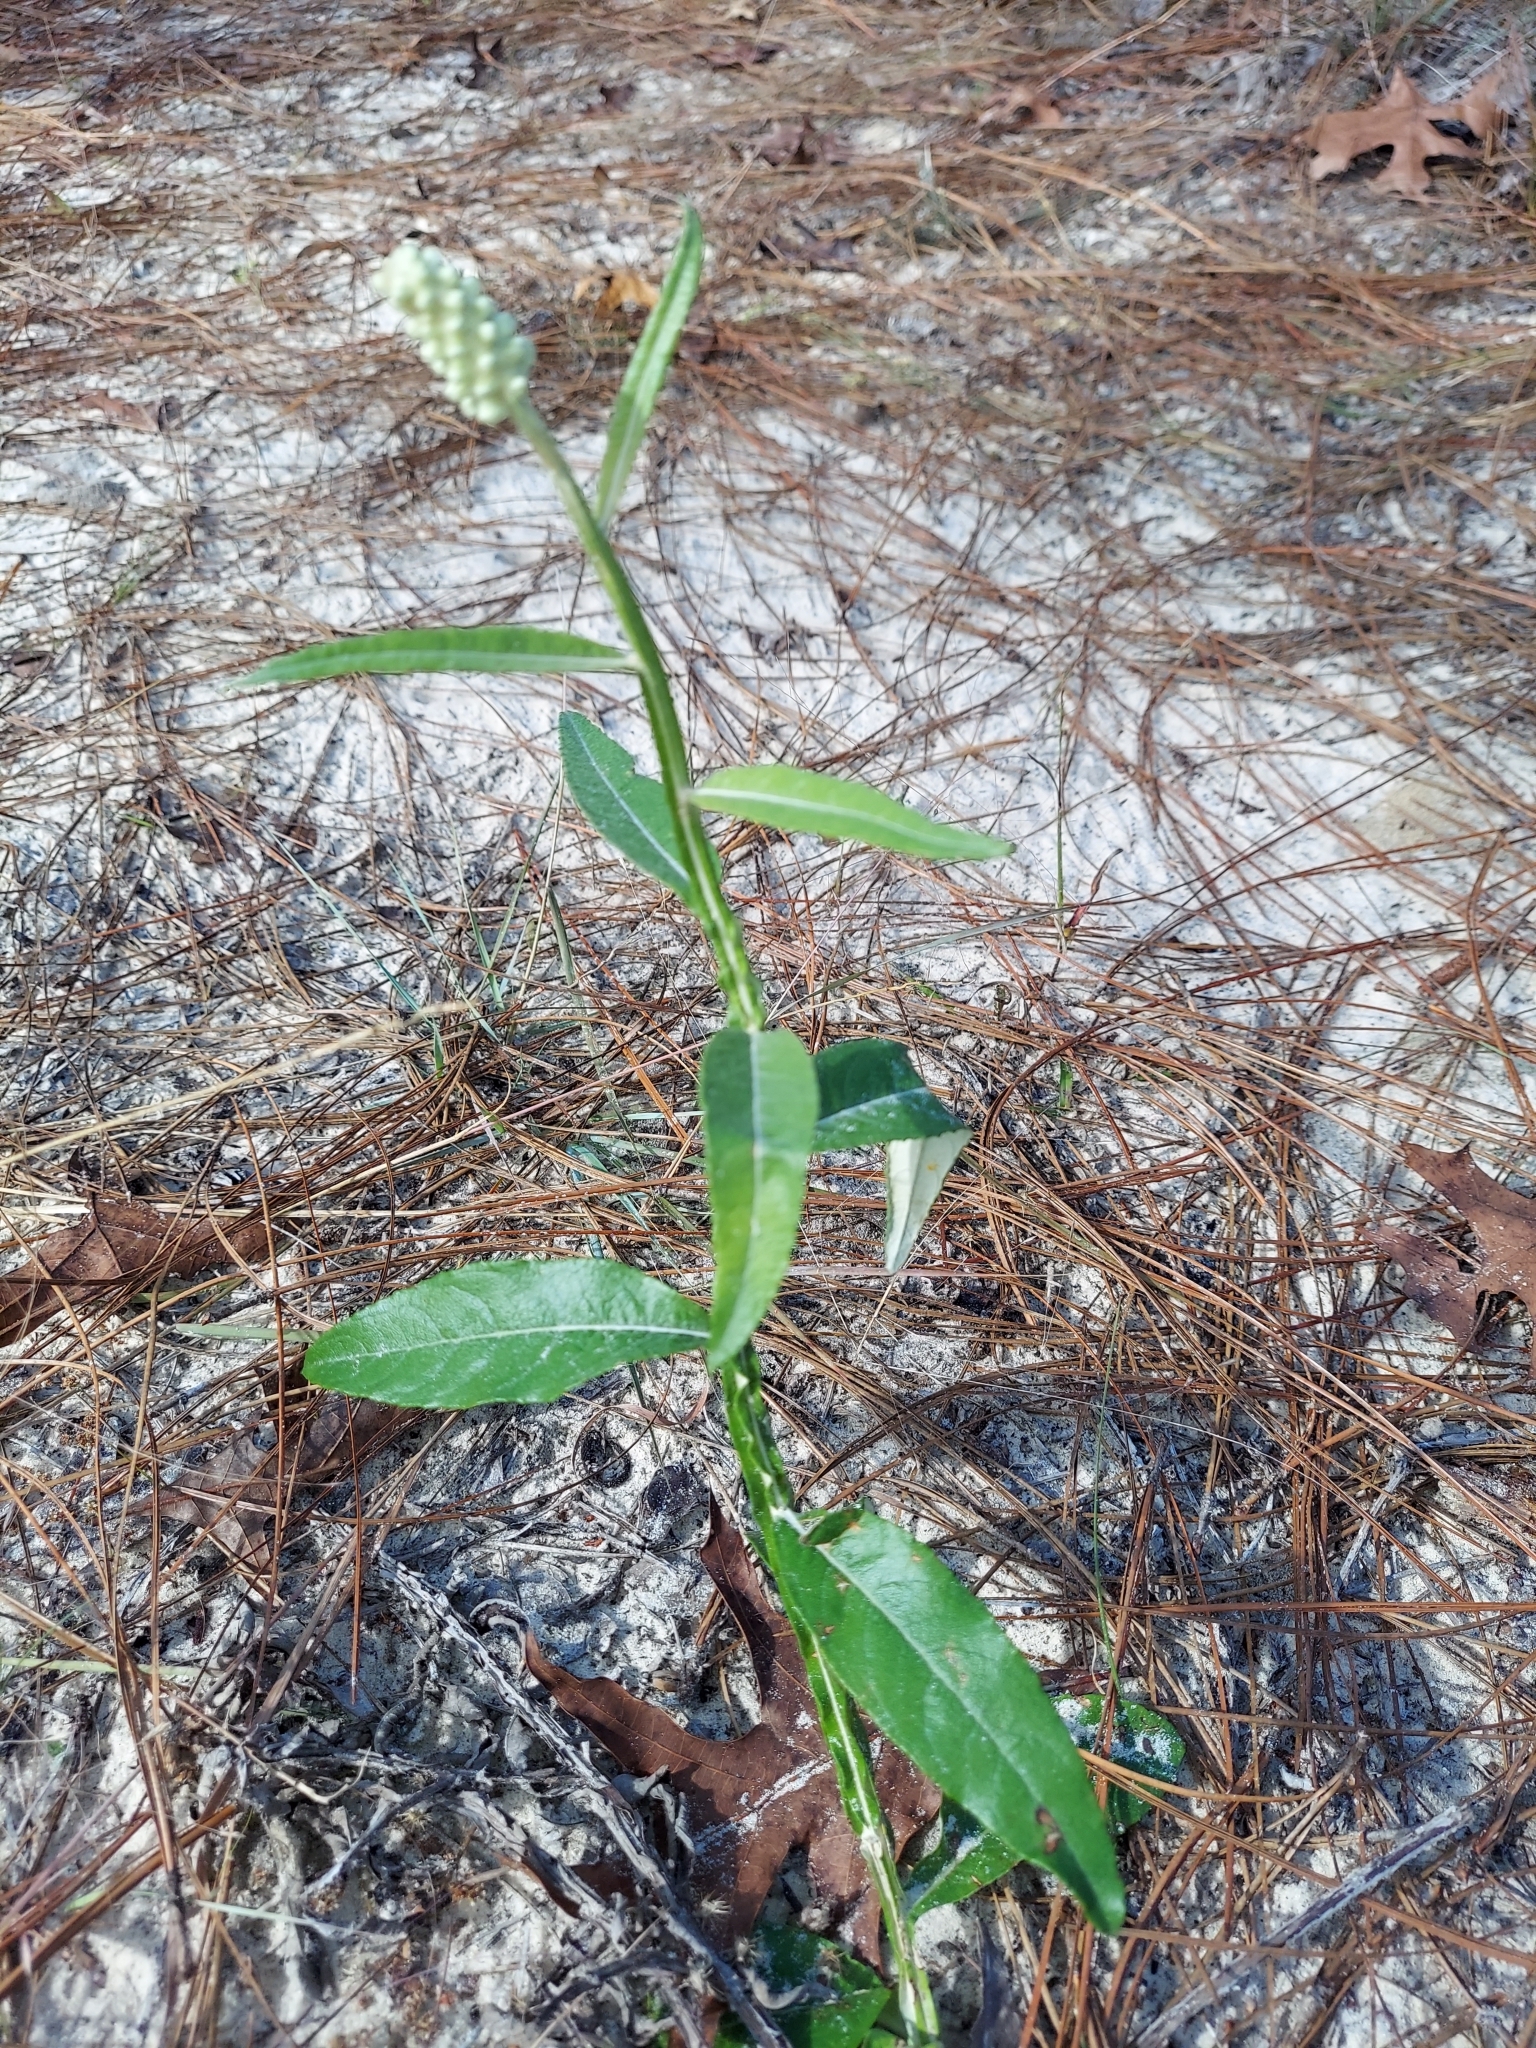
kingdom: Plantae
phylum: Tracheophyta
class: Magnoliopsida
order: Asterales
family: Asteraceae
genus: Pterocaulon
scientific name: Pterocaulon pycnostachyum
